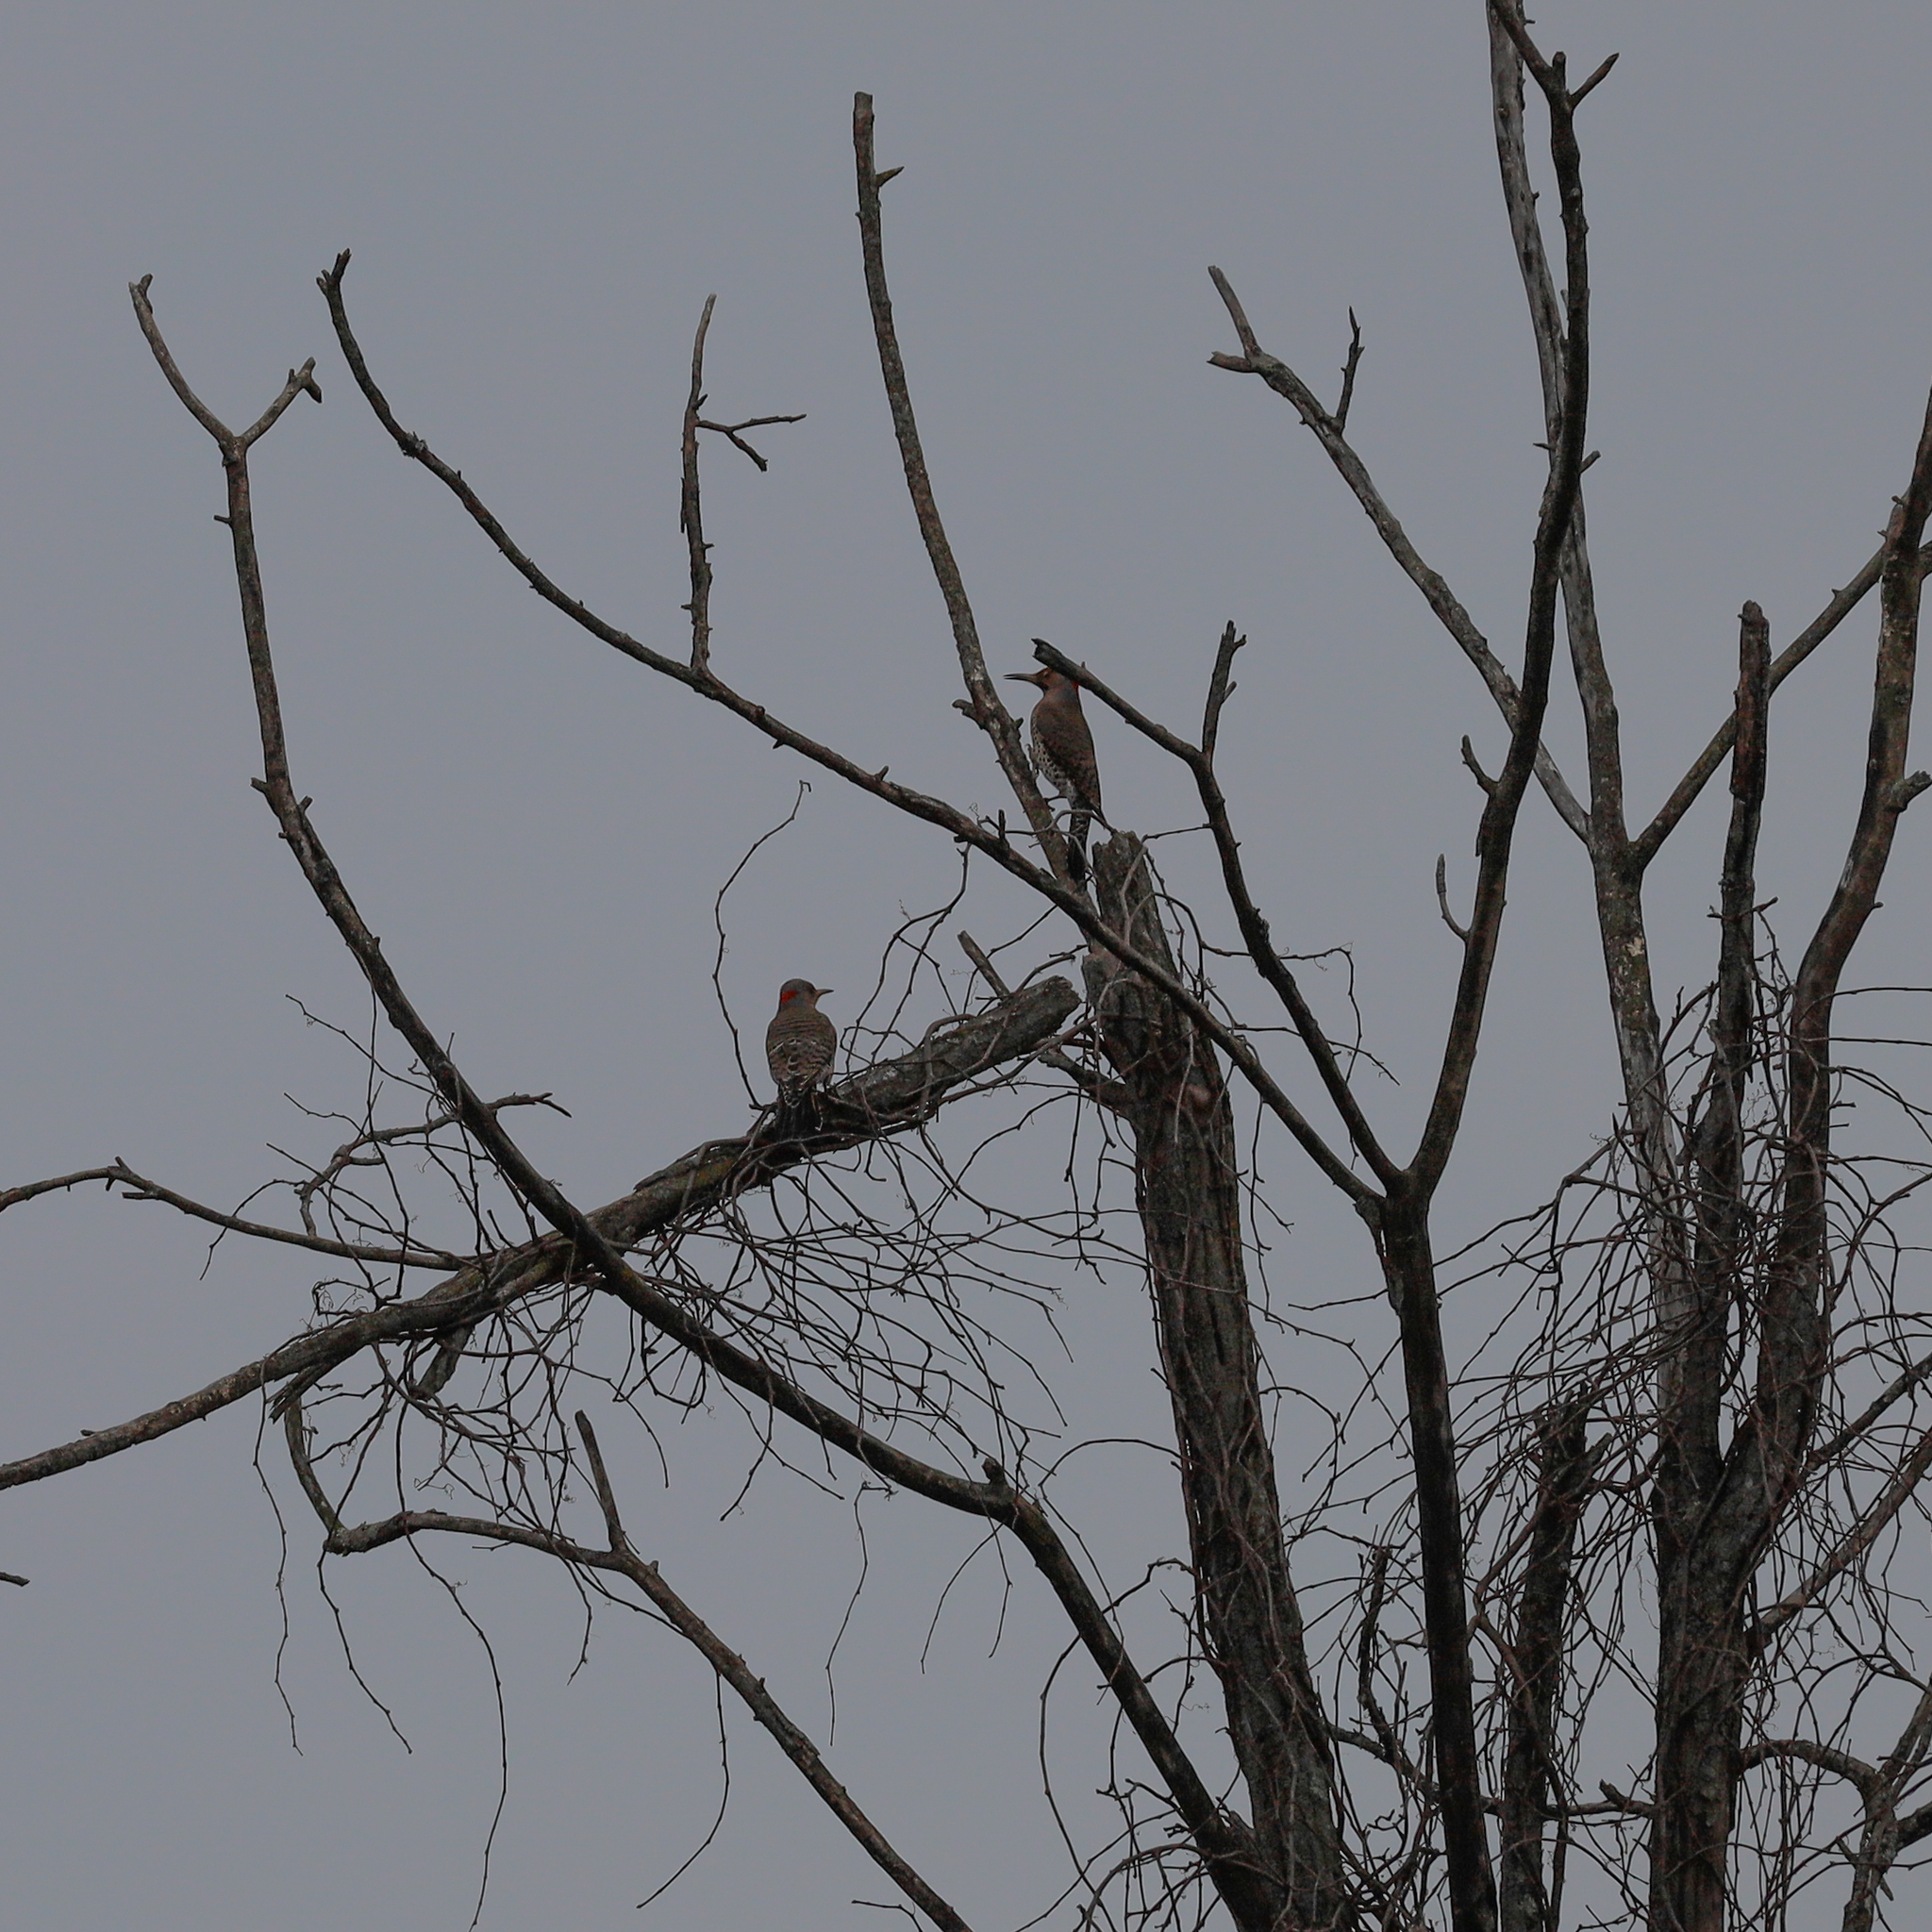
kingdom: Animalia
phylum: Chordata
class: Aves
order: Piciformes
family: Picidae
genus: Colaptes
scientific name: Colaptes auratus
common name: Northern flicker
